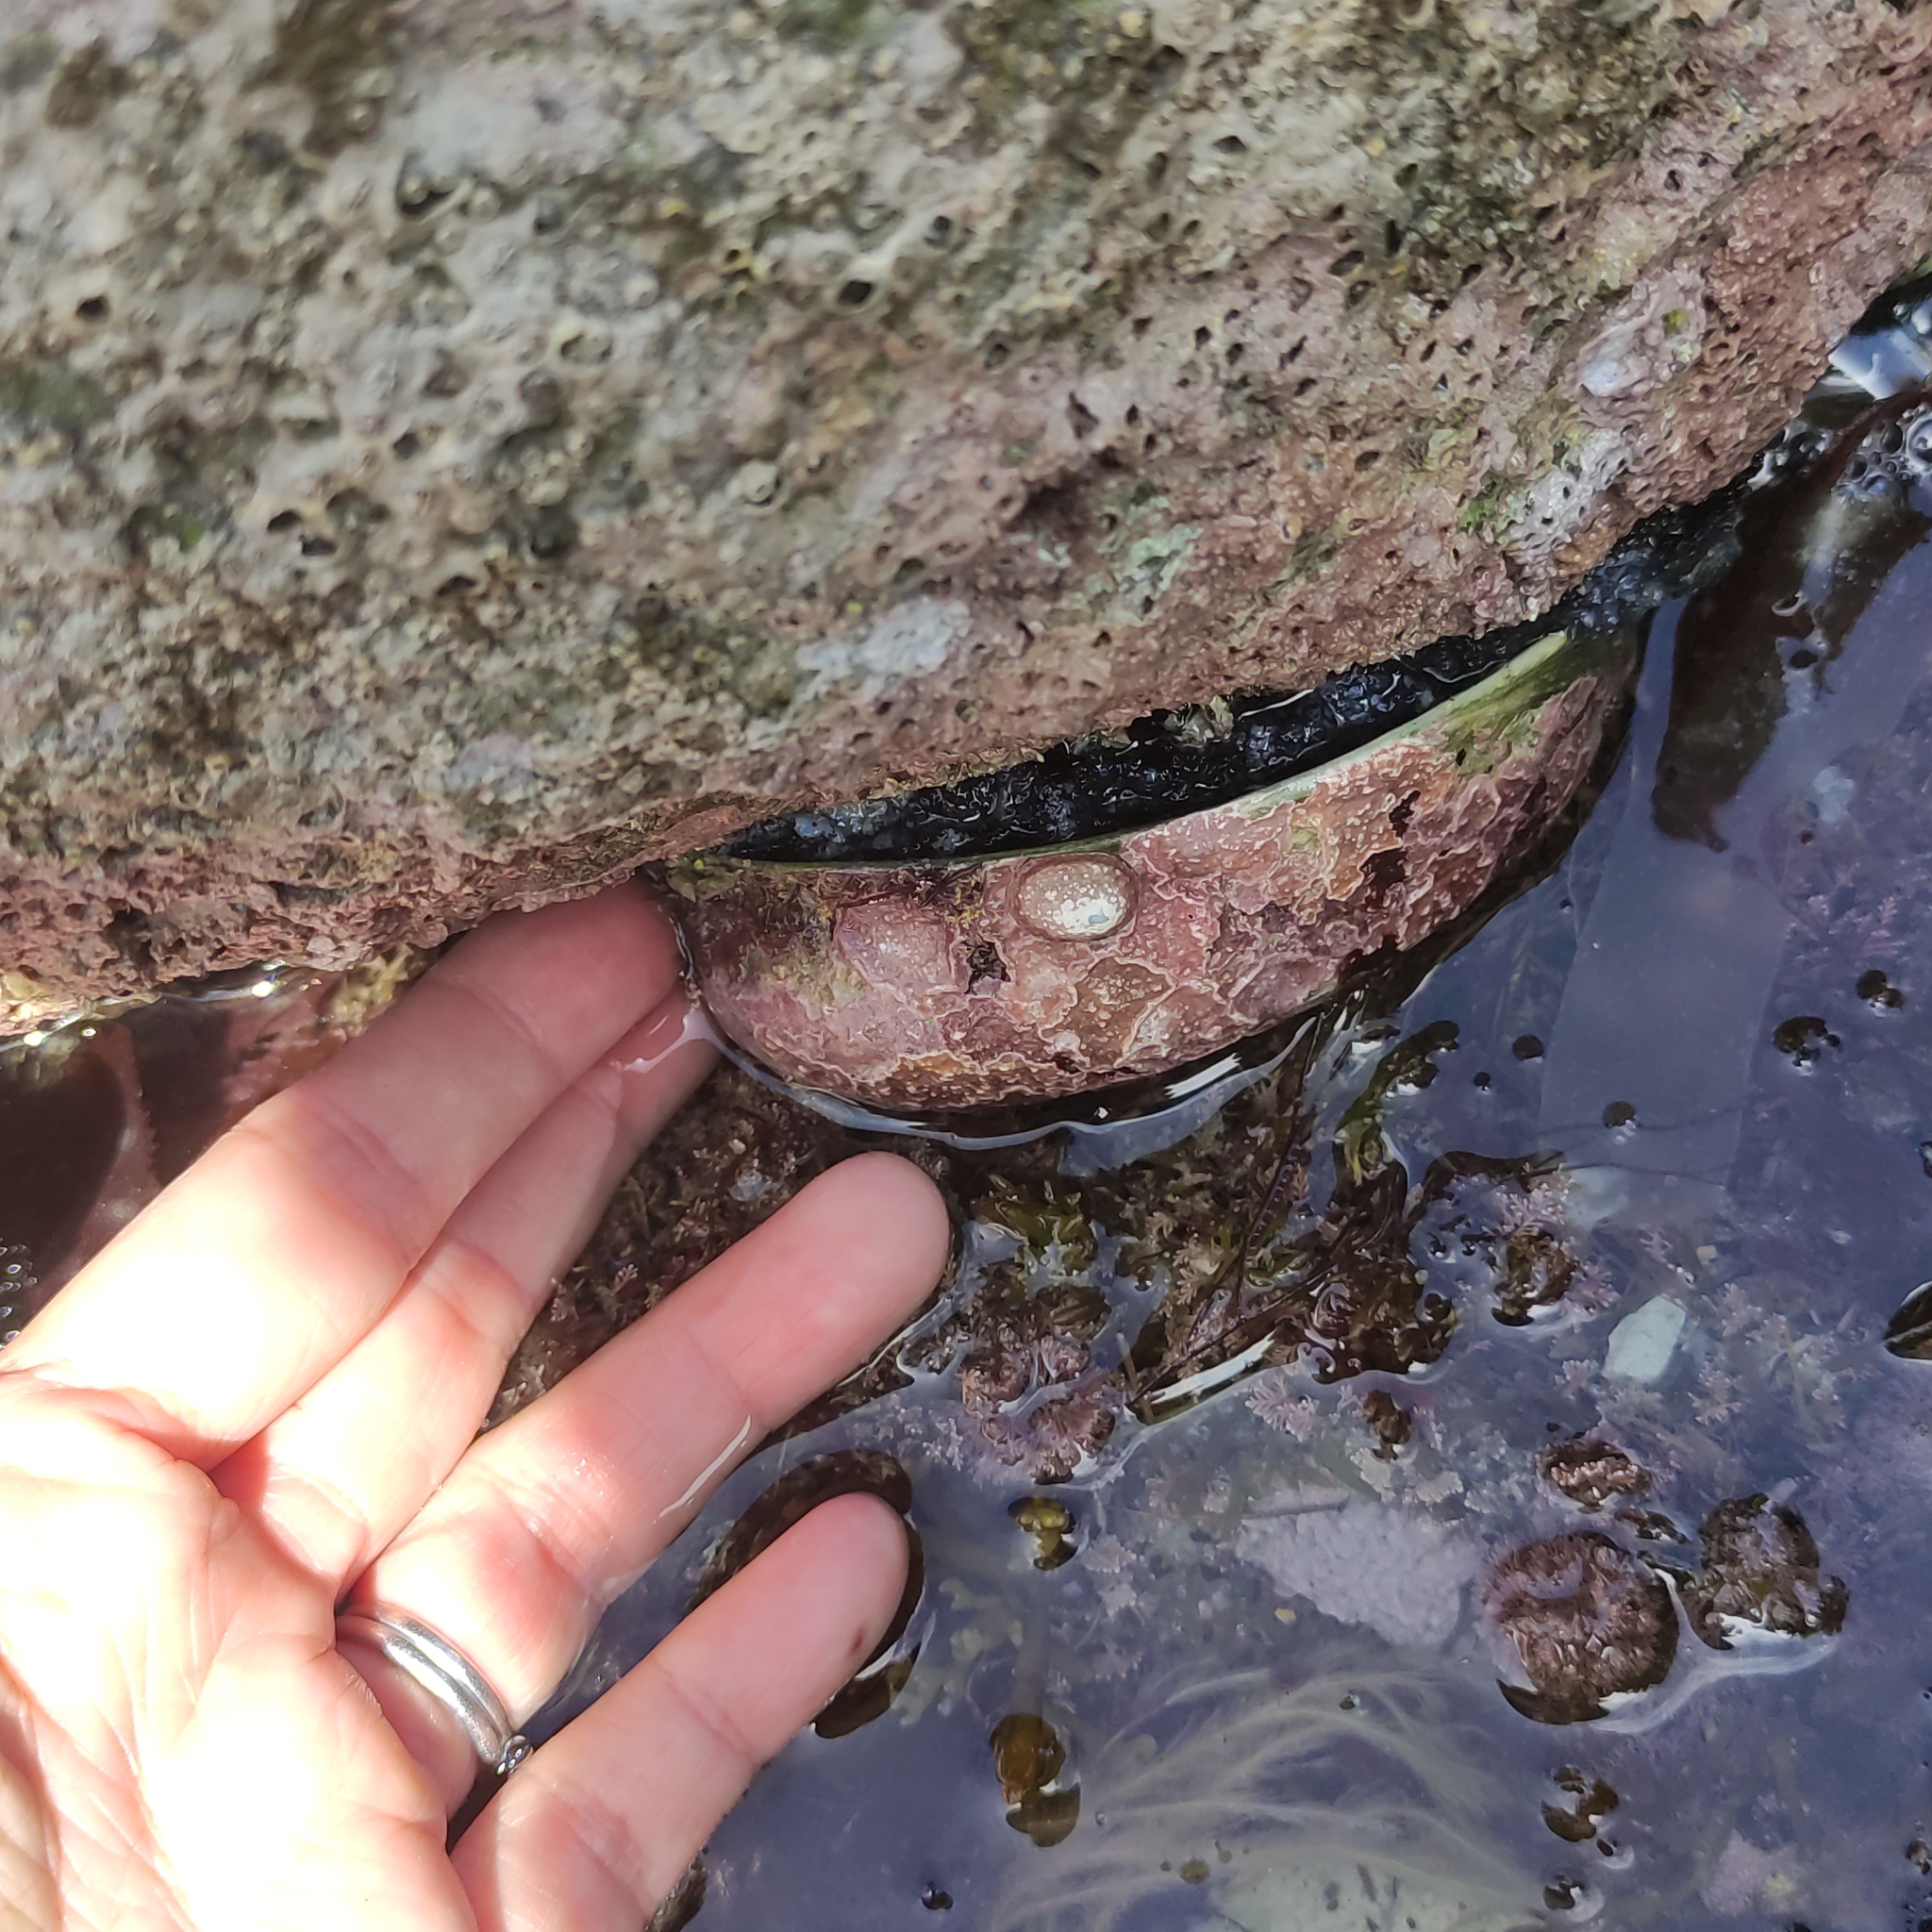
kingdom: Animalia
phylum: Mollusca
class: Gastropoda
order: Lepetellida
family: Haliotidae
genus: Haliotis
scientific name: Haliotis iris
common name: Abalone
